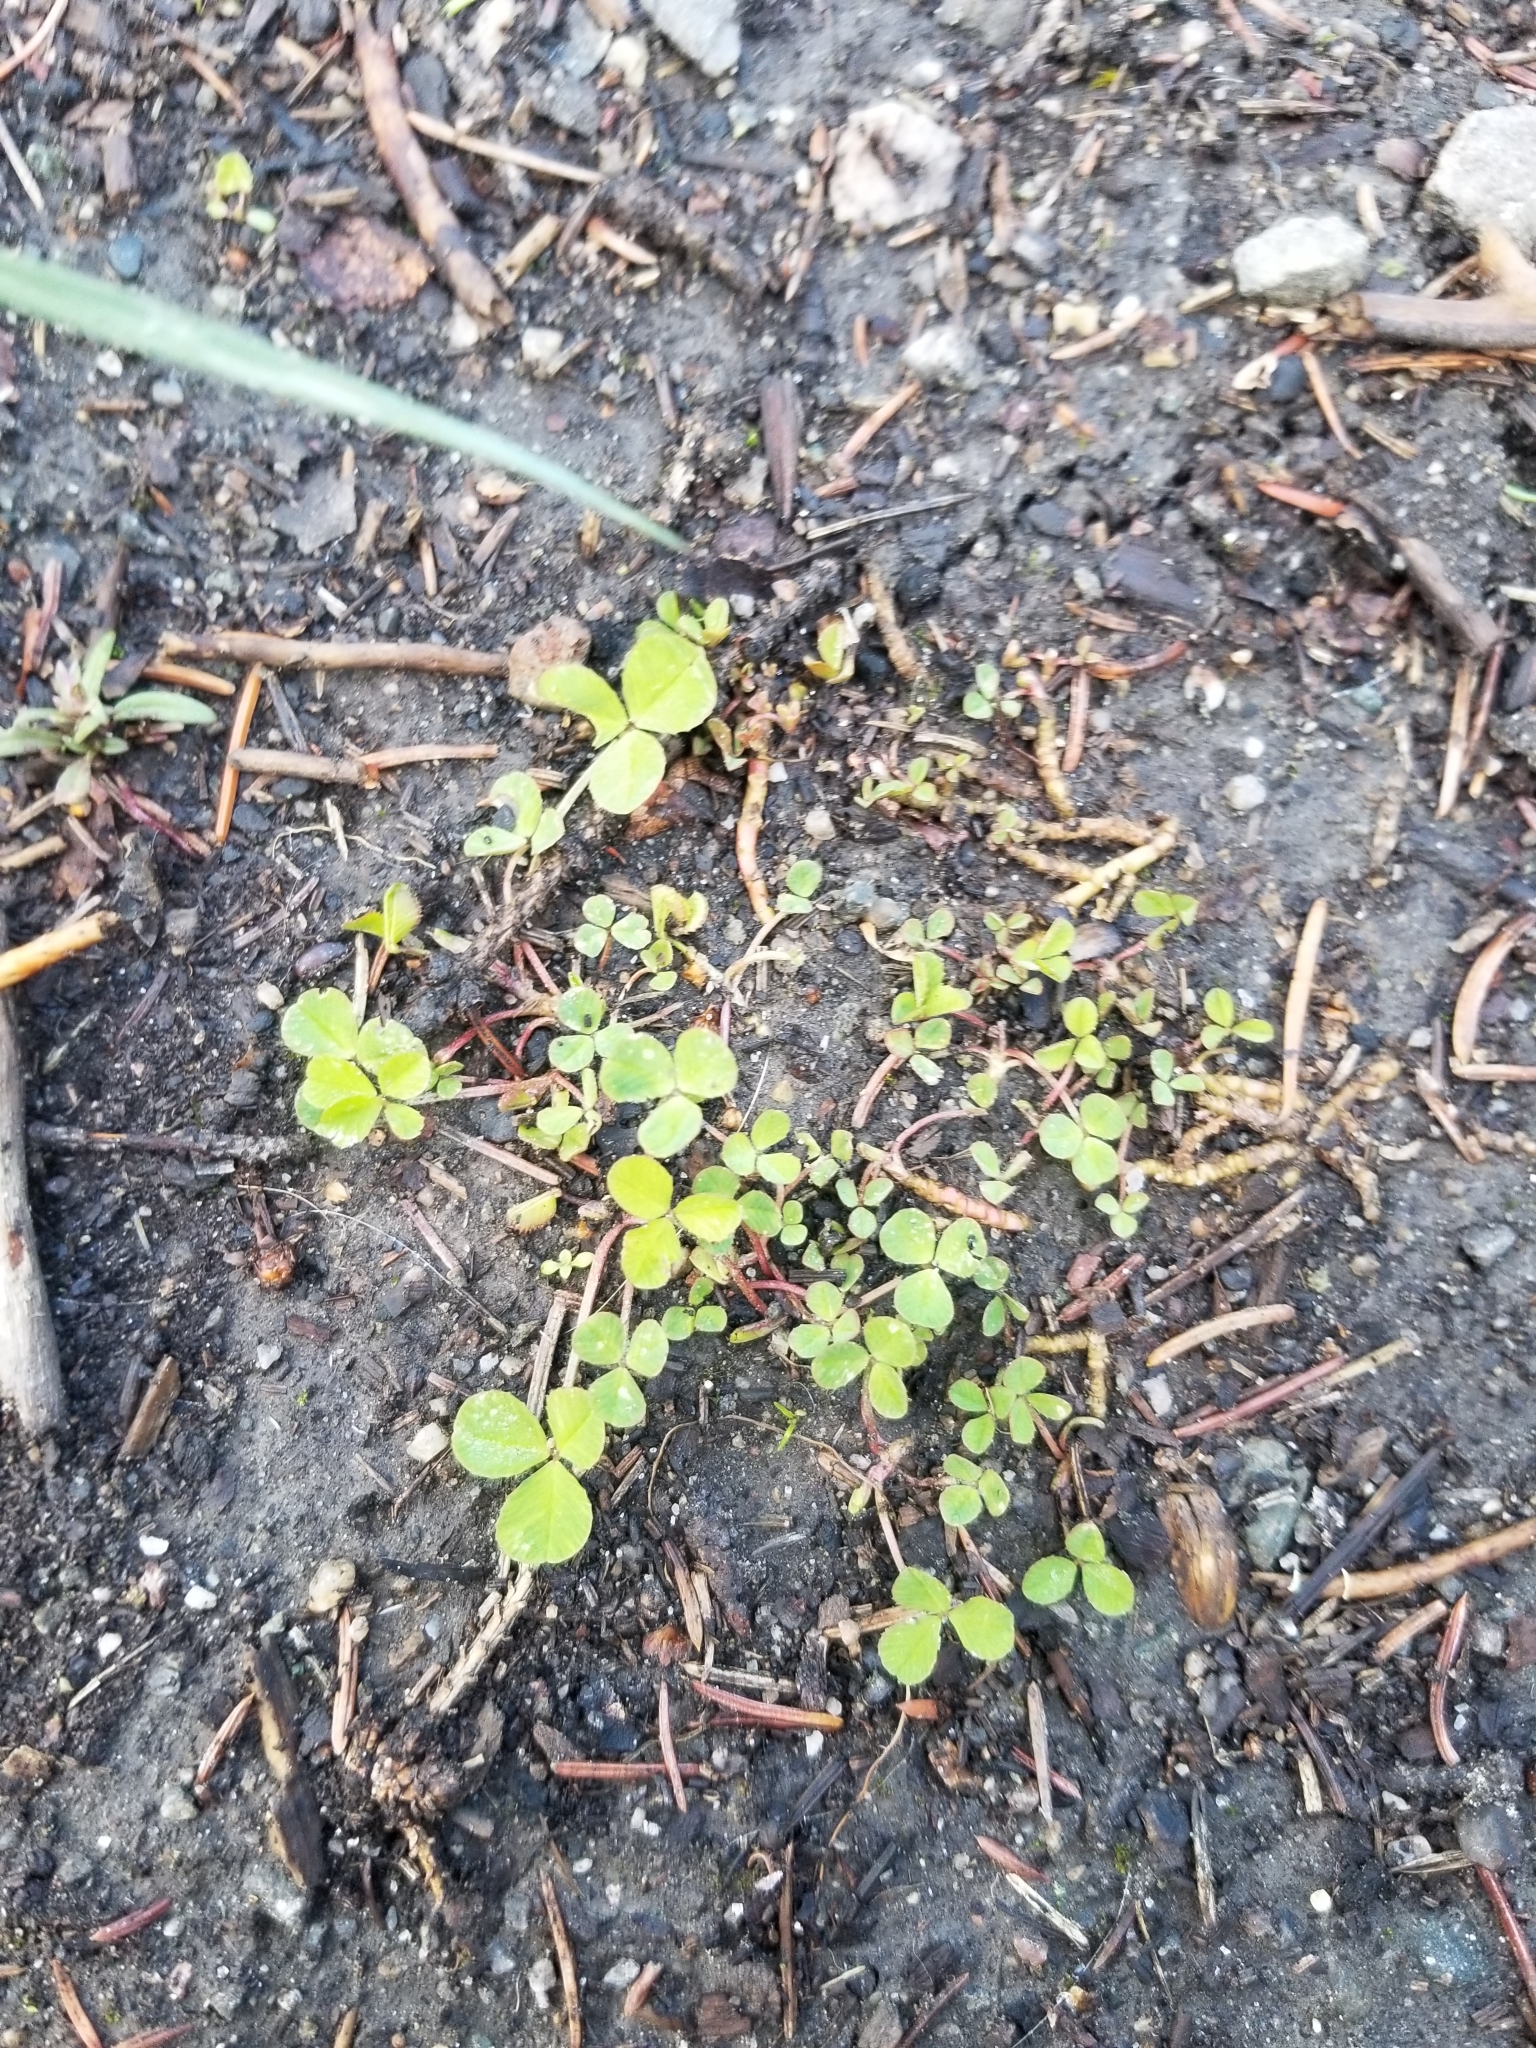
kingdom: Plantae
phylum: Tracheophyta
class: Magnoliopsida
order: Fabales
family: Fabaceae
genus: Medicago
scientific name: Medicago lupulina
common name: Black medick
